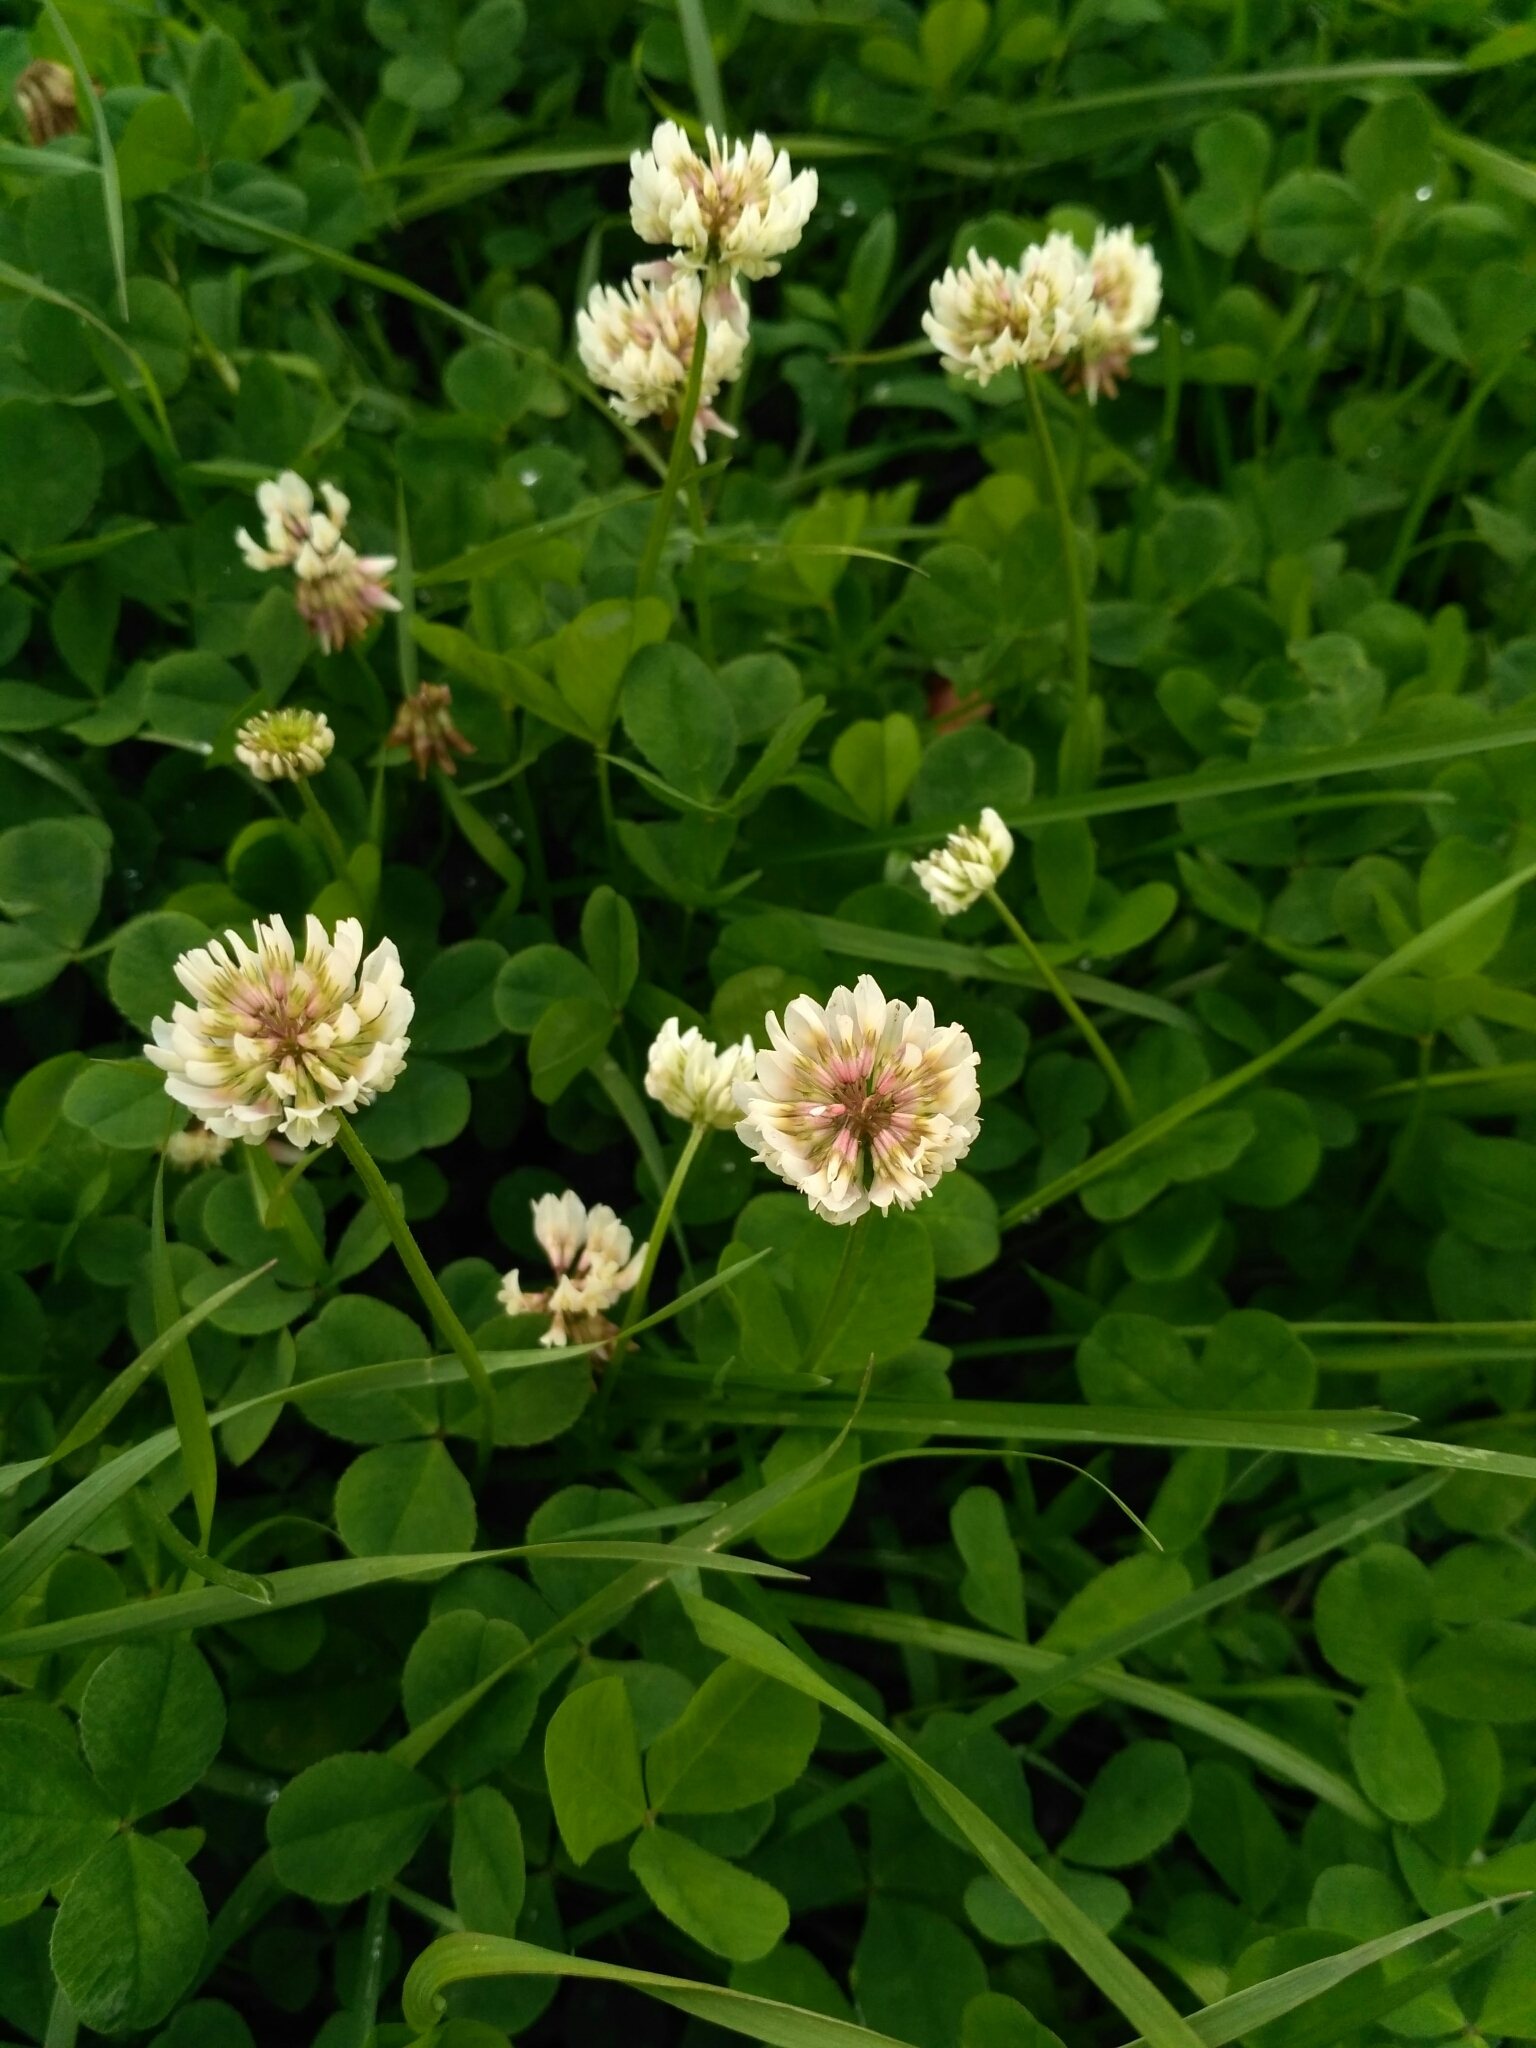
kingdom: Plantae
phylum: Tracheophyta
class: Magnoliopsida
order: Fabales
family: Fabaceae
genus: Trifolium
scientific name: Trifolium repens
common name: White clover
